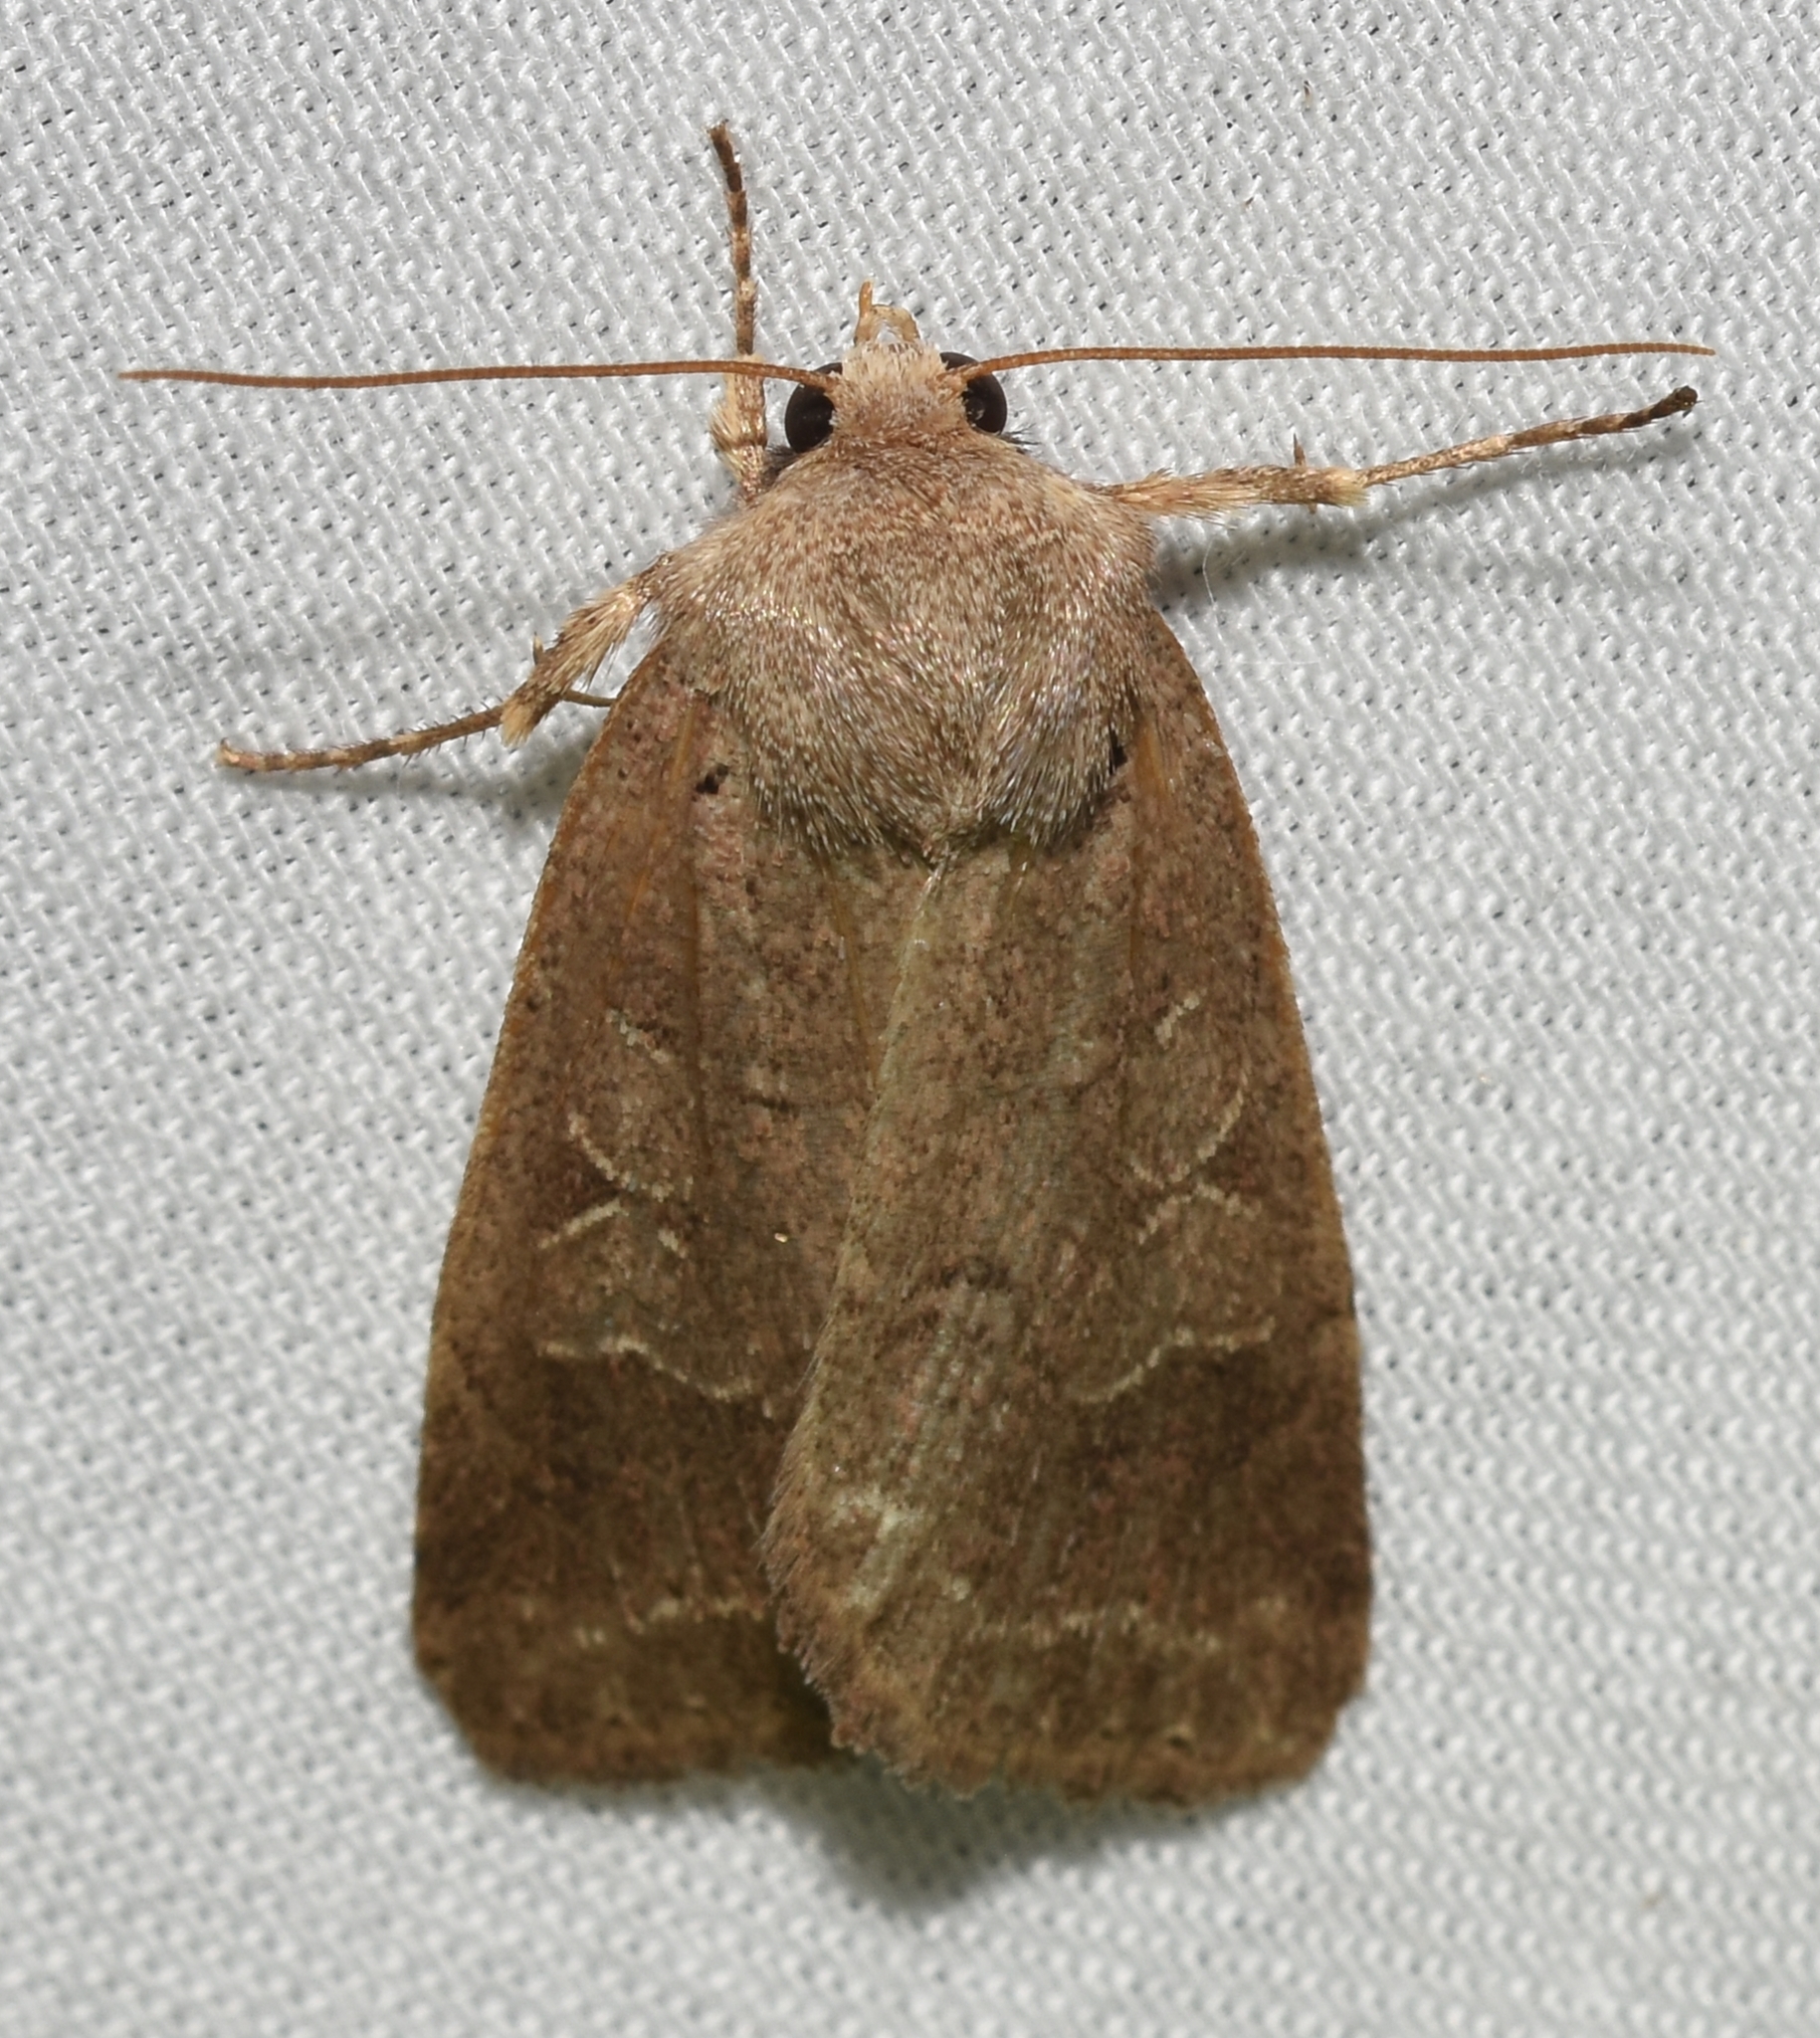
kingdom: Animalia
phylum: Arthropoda
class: Insecta
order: Lepidoptera
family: Noctuidae
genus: Kocakina
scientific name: Kocakina fidelis
